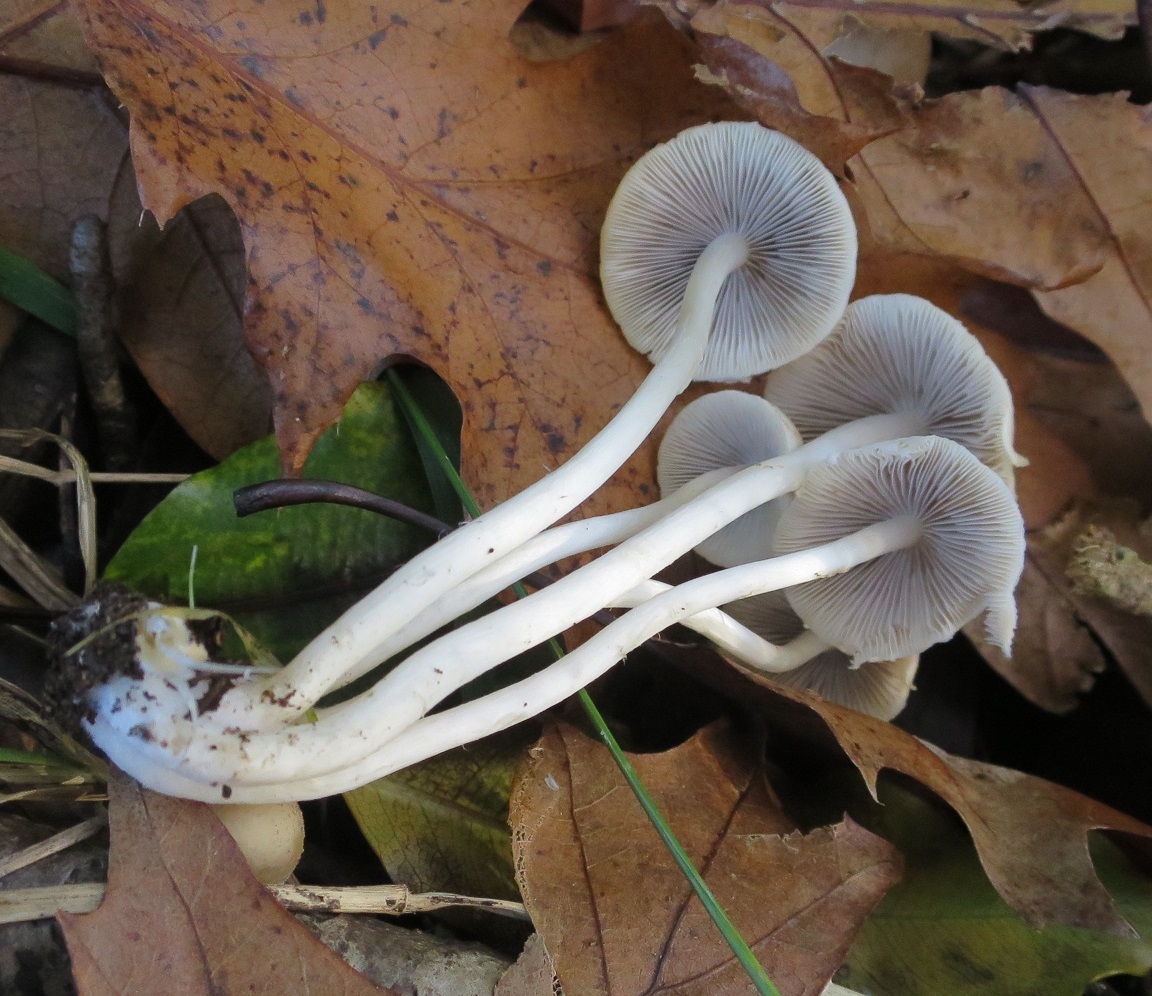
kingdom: Fungi
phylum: Basidiomycota
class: Agaricomycetes
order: Agaricales
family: Psathyrellaceae
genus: Candolleomyces
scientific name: Candolleomyces candolleanus
